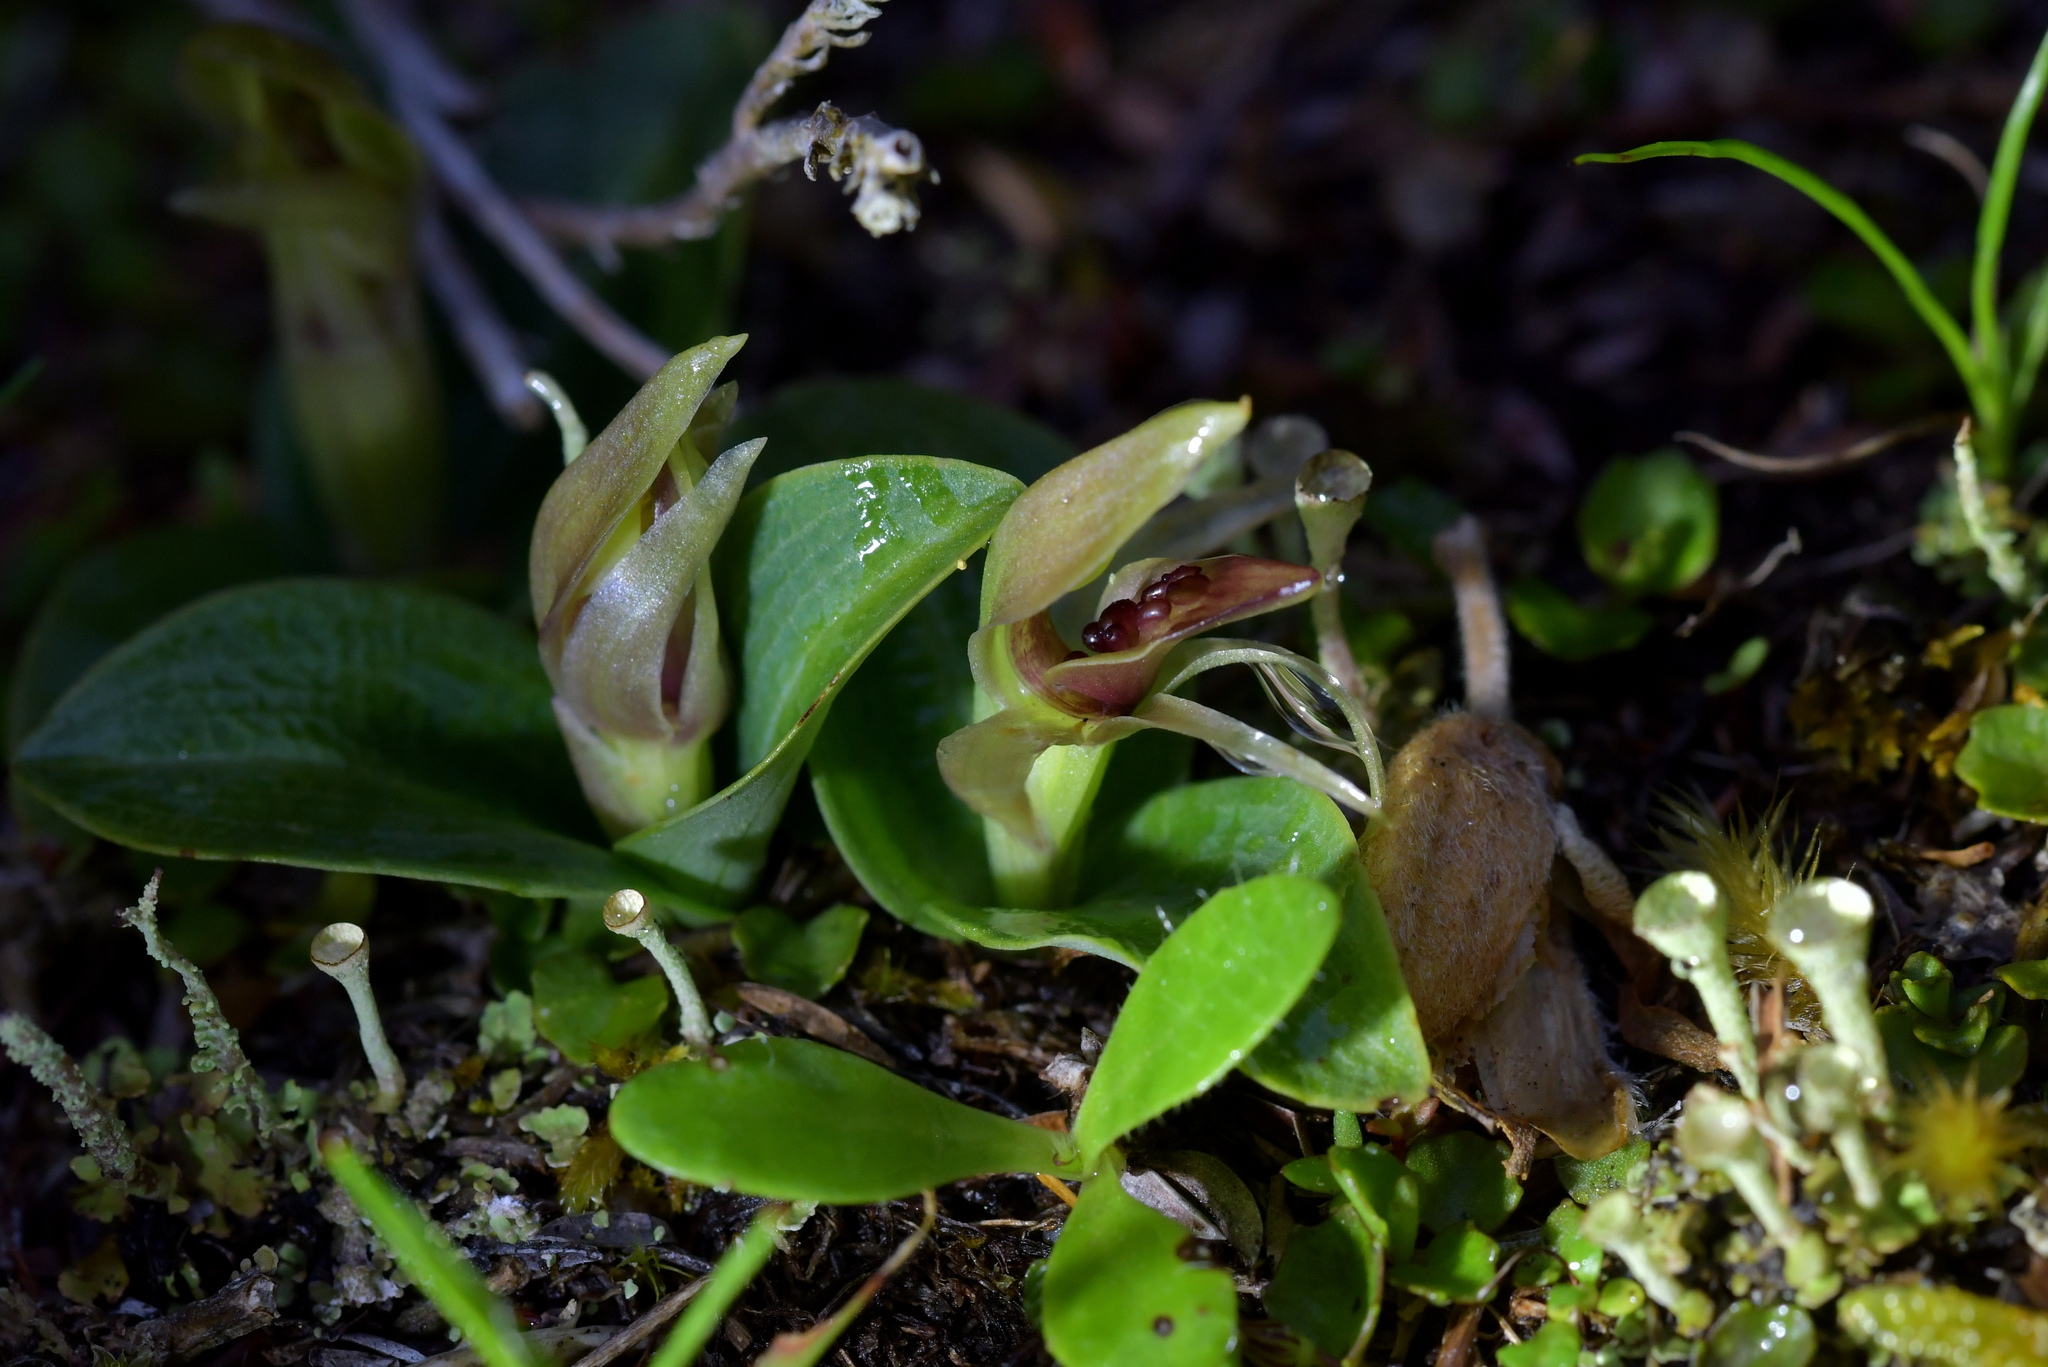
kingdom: Plantae
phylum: Tracheophyta
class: Liliopsida
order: Asparagales
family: Orchidaceae
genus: Chiloglottis
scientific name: Chiloglottis cornuta
